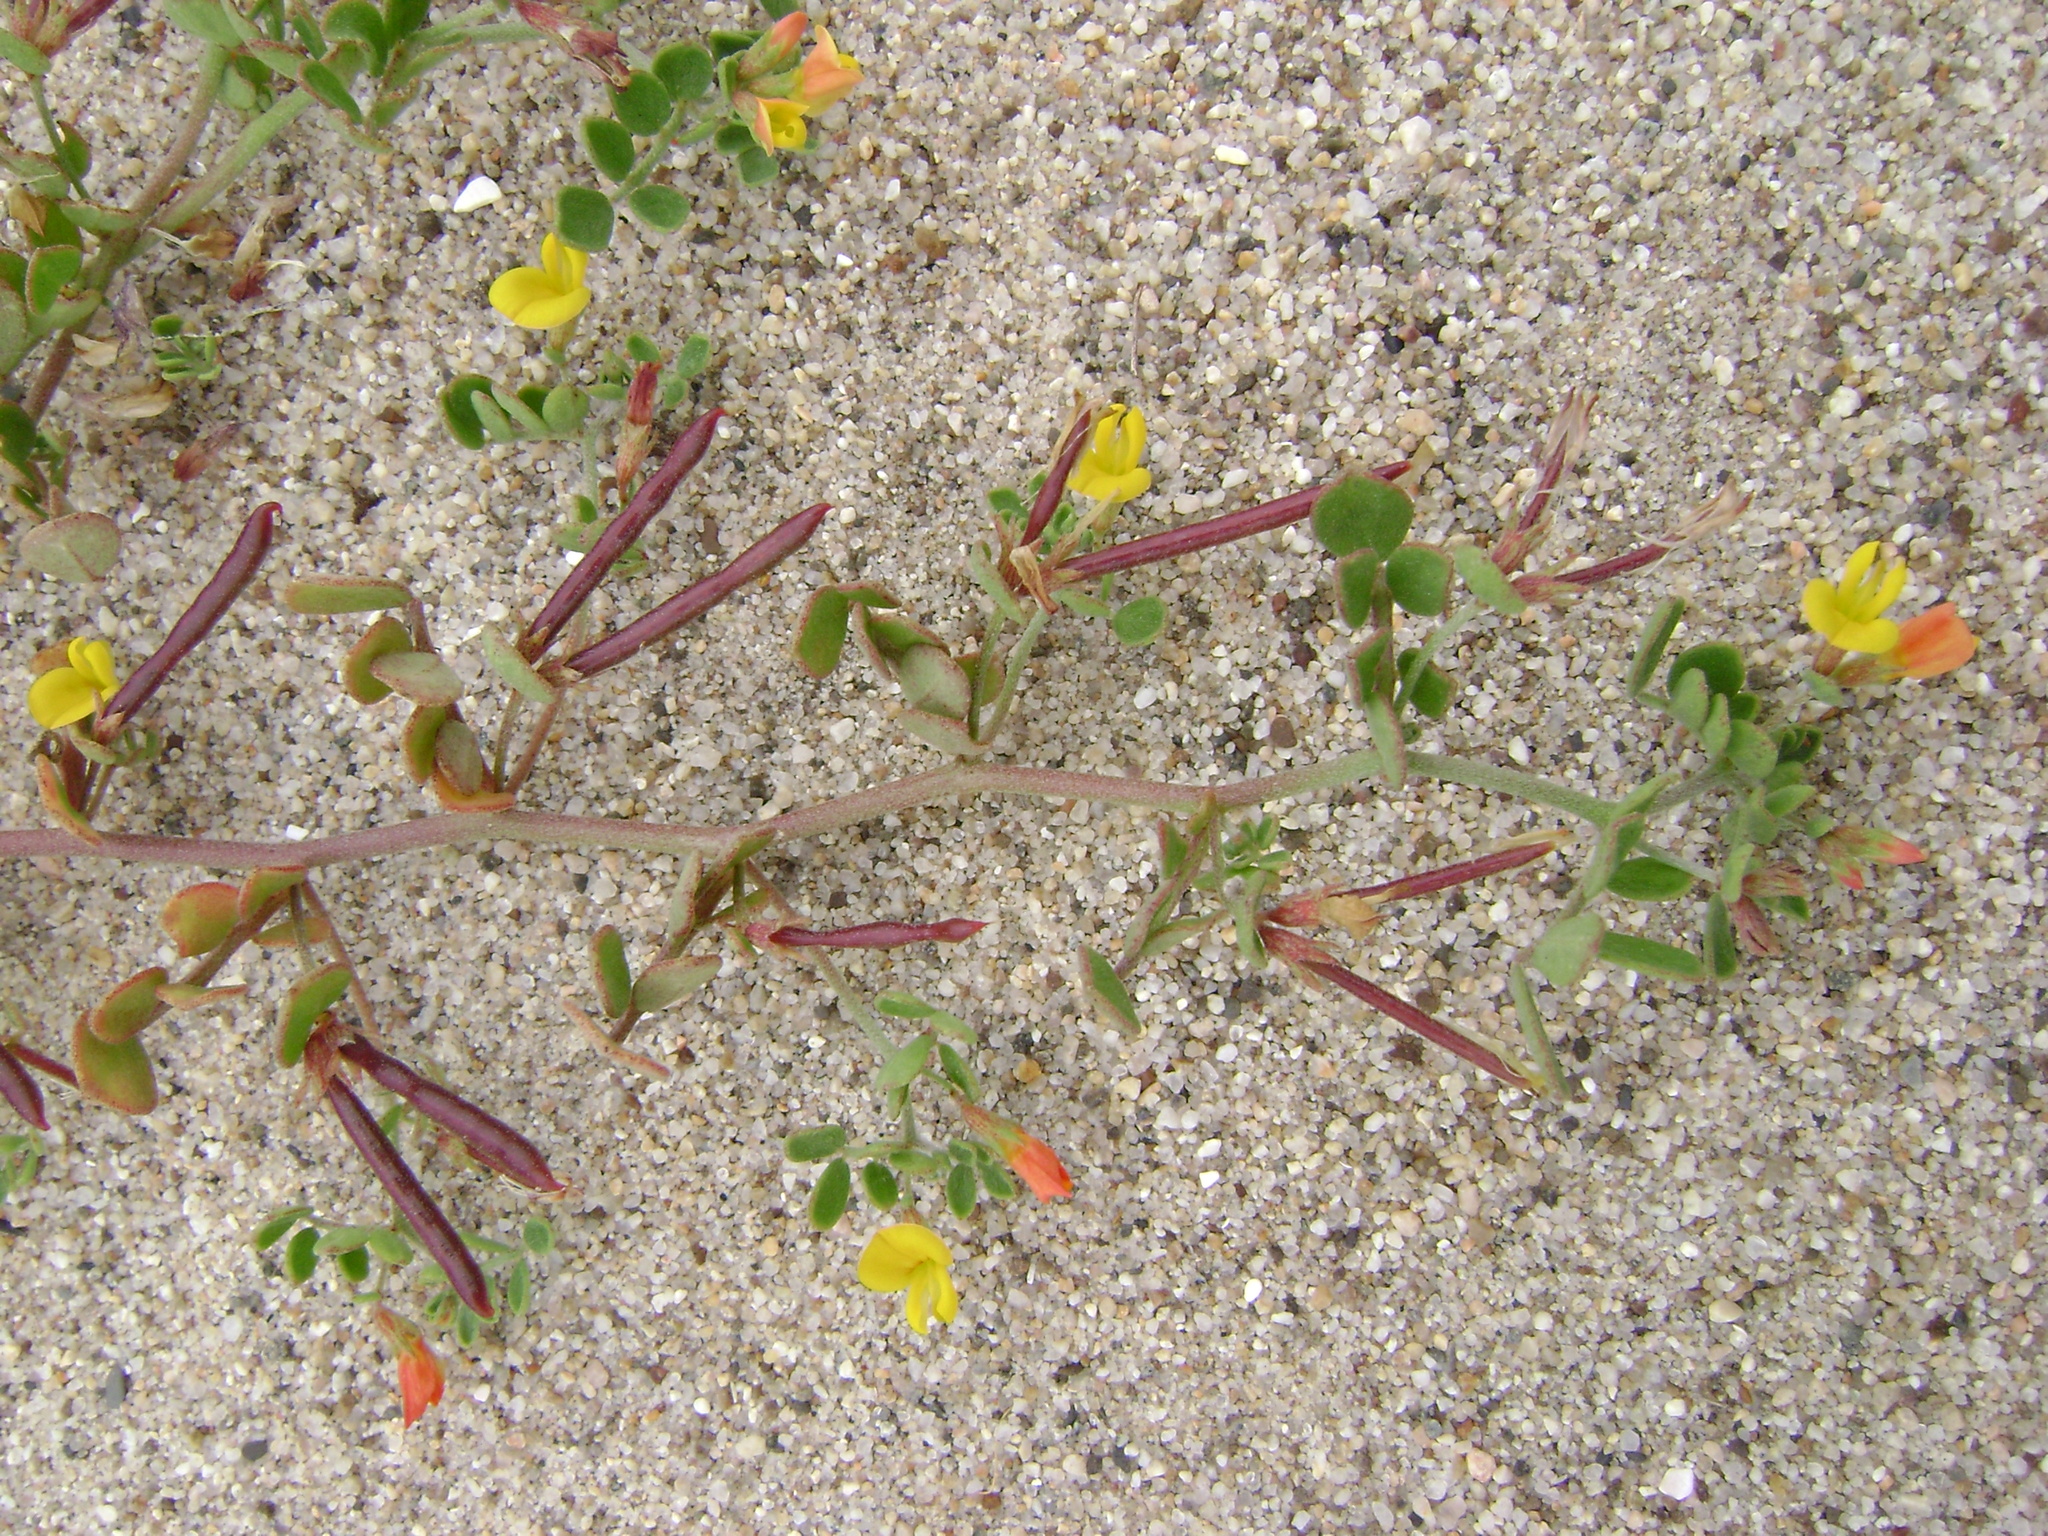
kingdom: Plantae
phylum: Tracheophyta
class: Magnoliopsida
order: Fabales
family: Fabaceae
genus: Acmispon
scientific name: Acmispon maritimus
